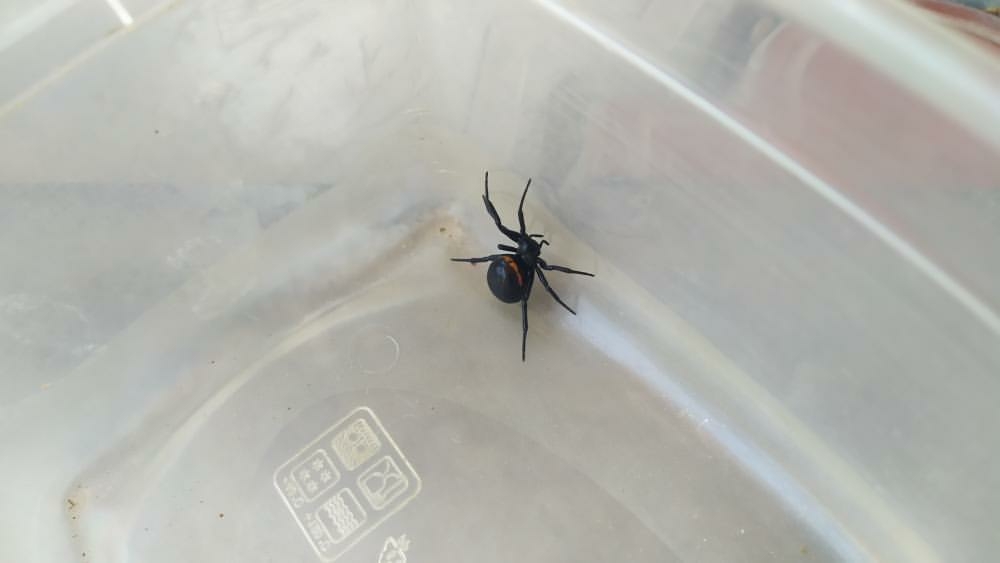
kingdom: Animalia
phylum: Arthropoda
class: Arachnida
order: Araneae
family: Theridiidae
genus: Steatoda
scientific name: Steatoda paykulliana
